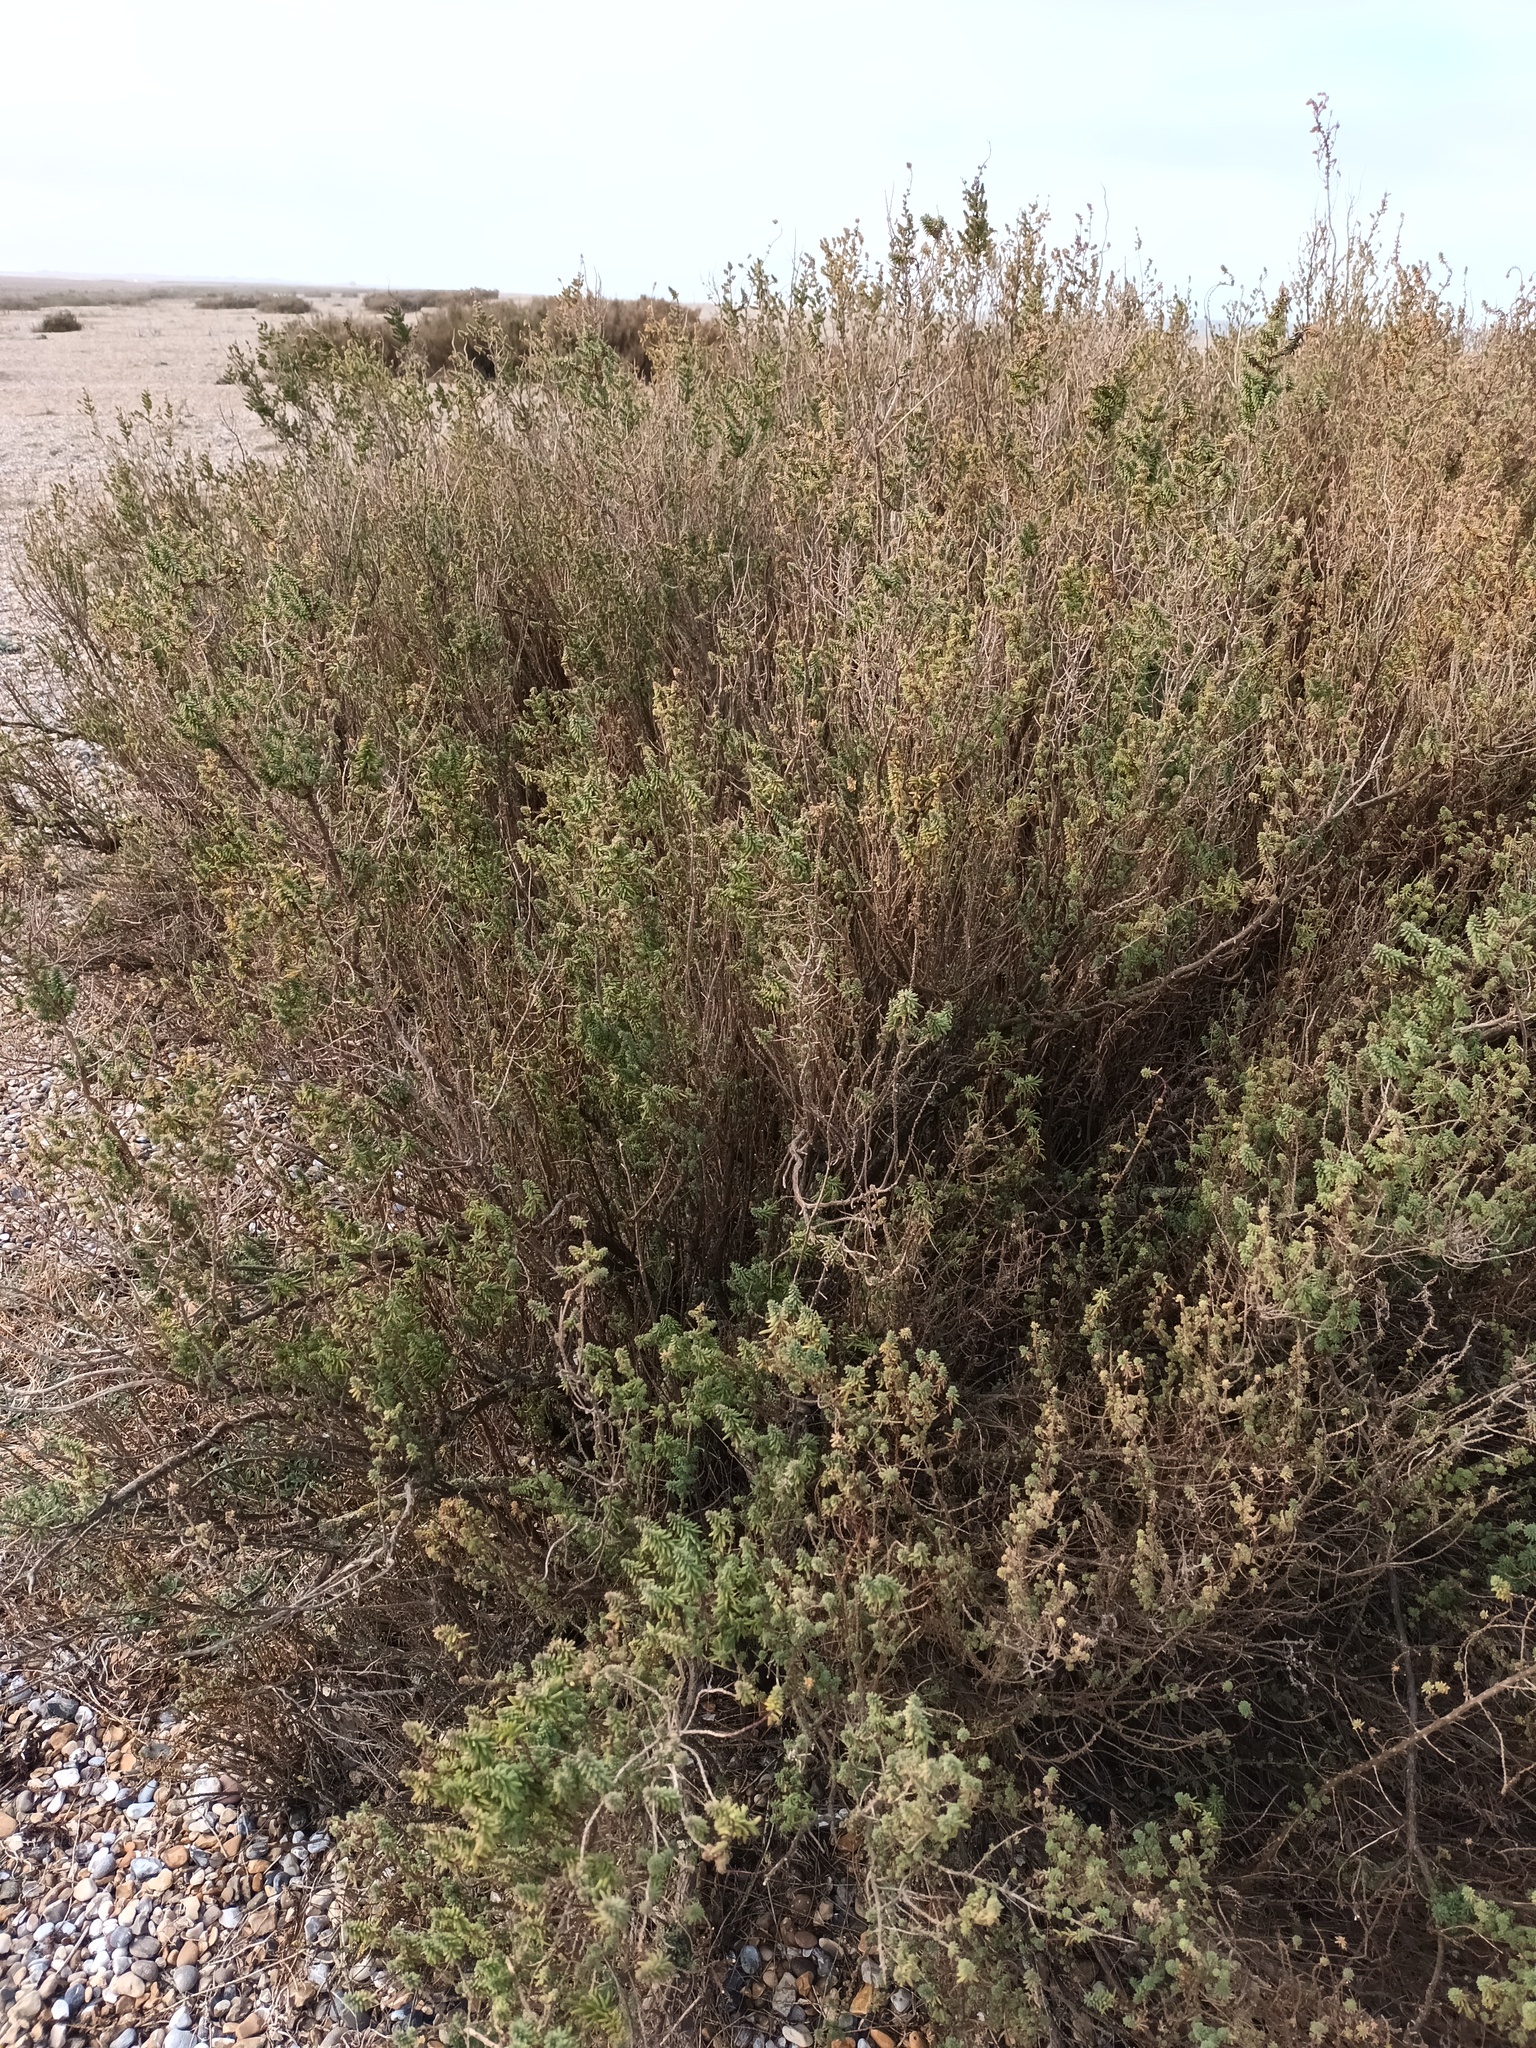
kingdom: Plantae
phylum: Tracheophyta
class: Magnoliopsida
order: Caryophyllales
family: Amaranthaceae
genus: Suaeda
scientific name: Suaeda vera
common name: Shrubby sea-blite
